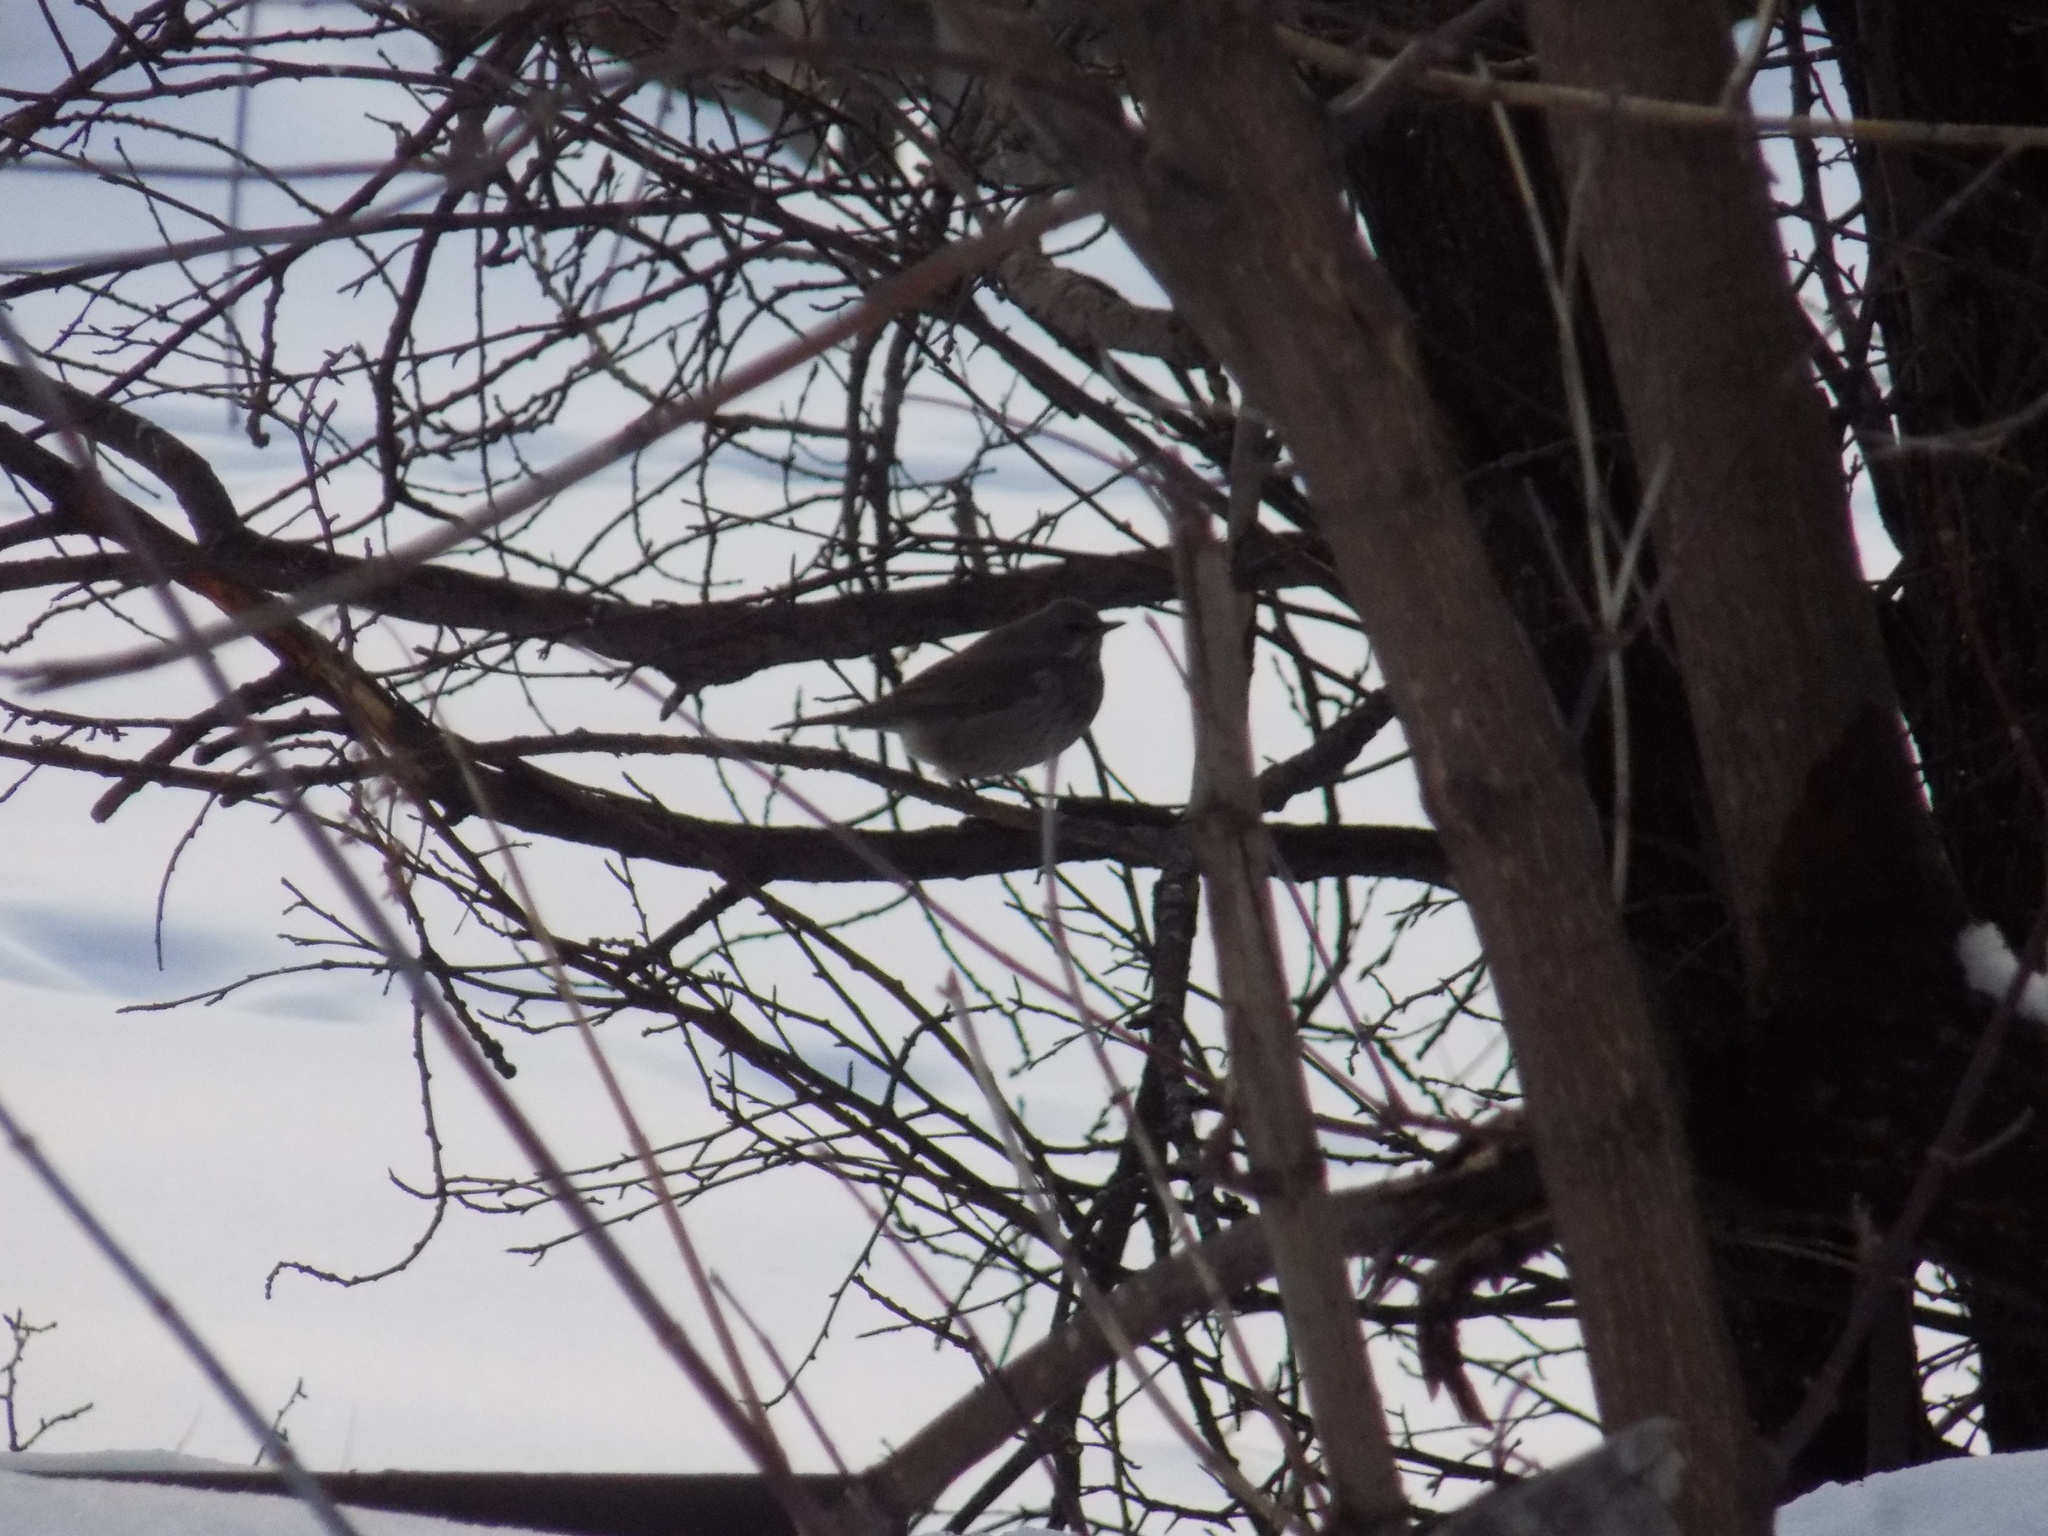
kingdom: Animalia
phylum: Chordata
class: Aves
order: Passeriformes
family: Turdidae
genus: Turdus
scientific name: Turdus atrogularis
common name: Black-throated thrush
